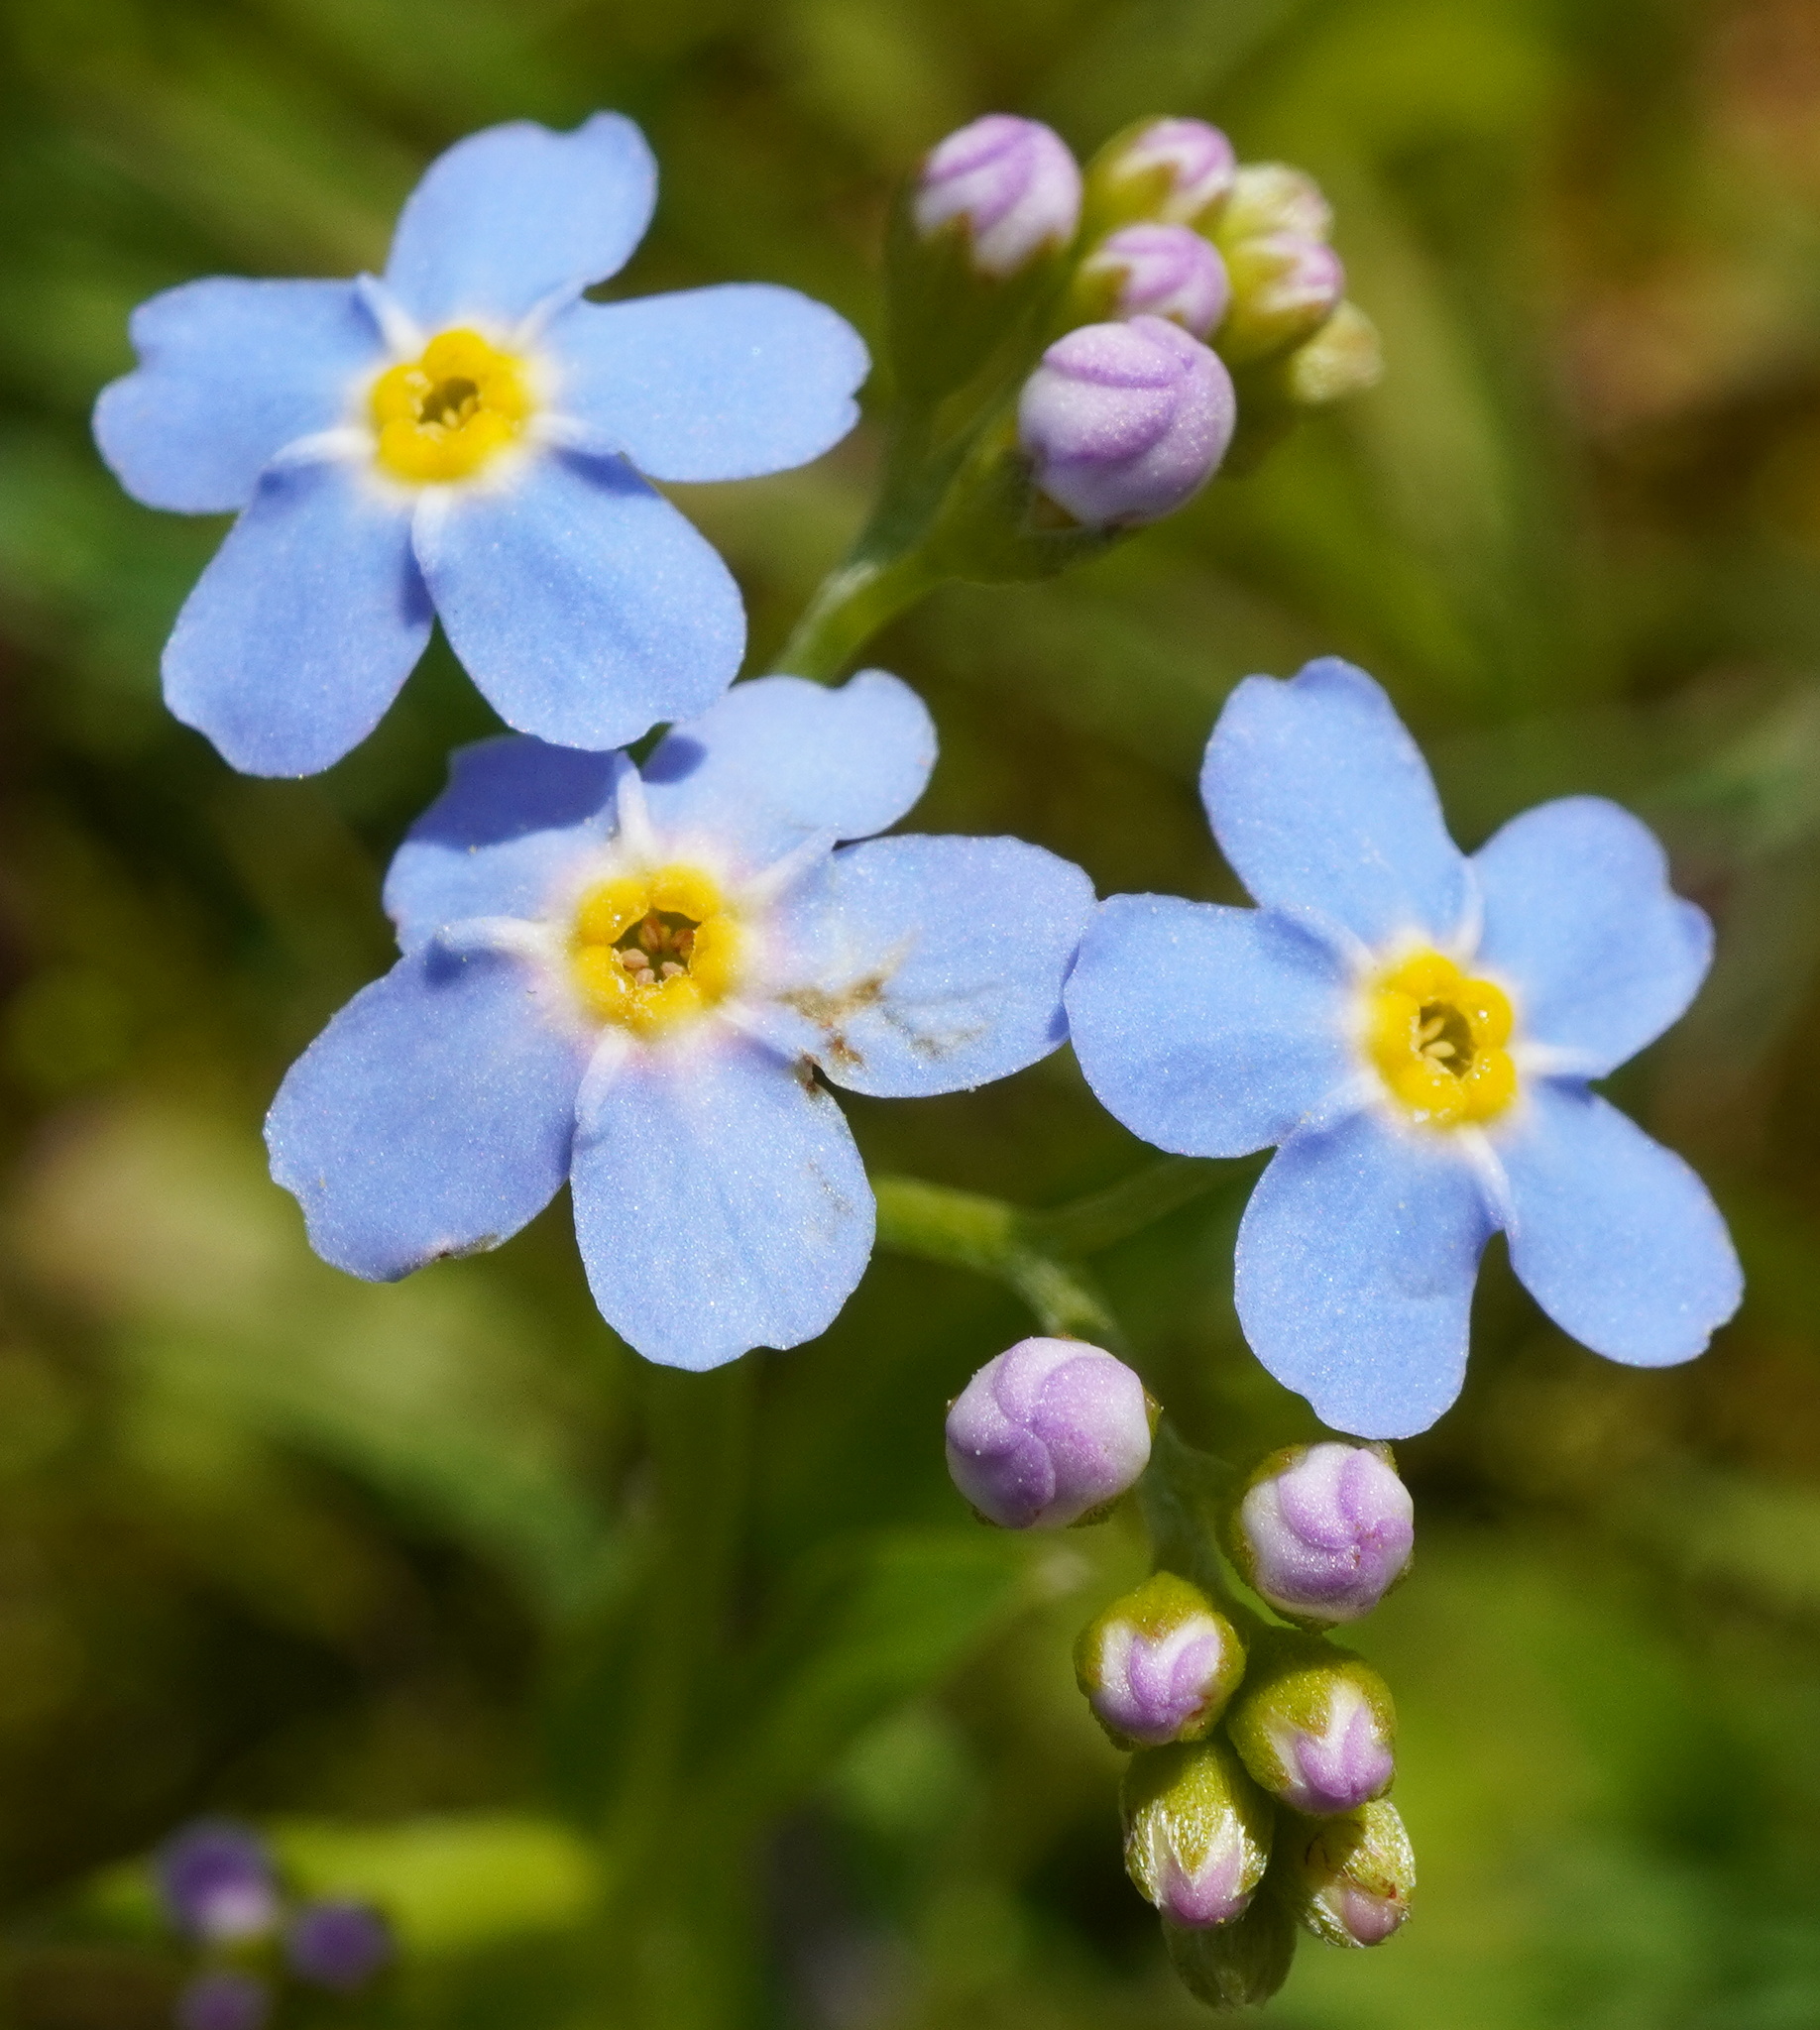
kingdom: Plantae
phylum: Tracheophyta
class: Magnoliopsida
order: Boraginales
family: Boraginaceae
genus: Myosotis
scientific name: Myosotis scorpioides
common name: Water forget-me-not
